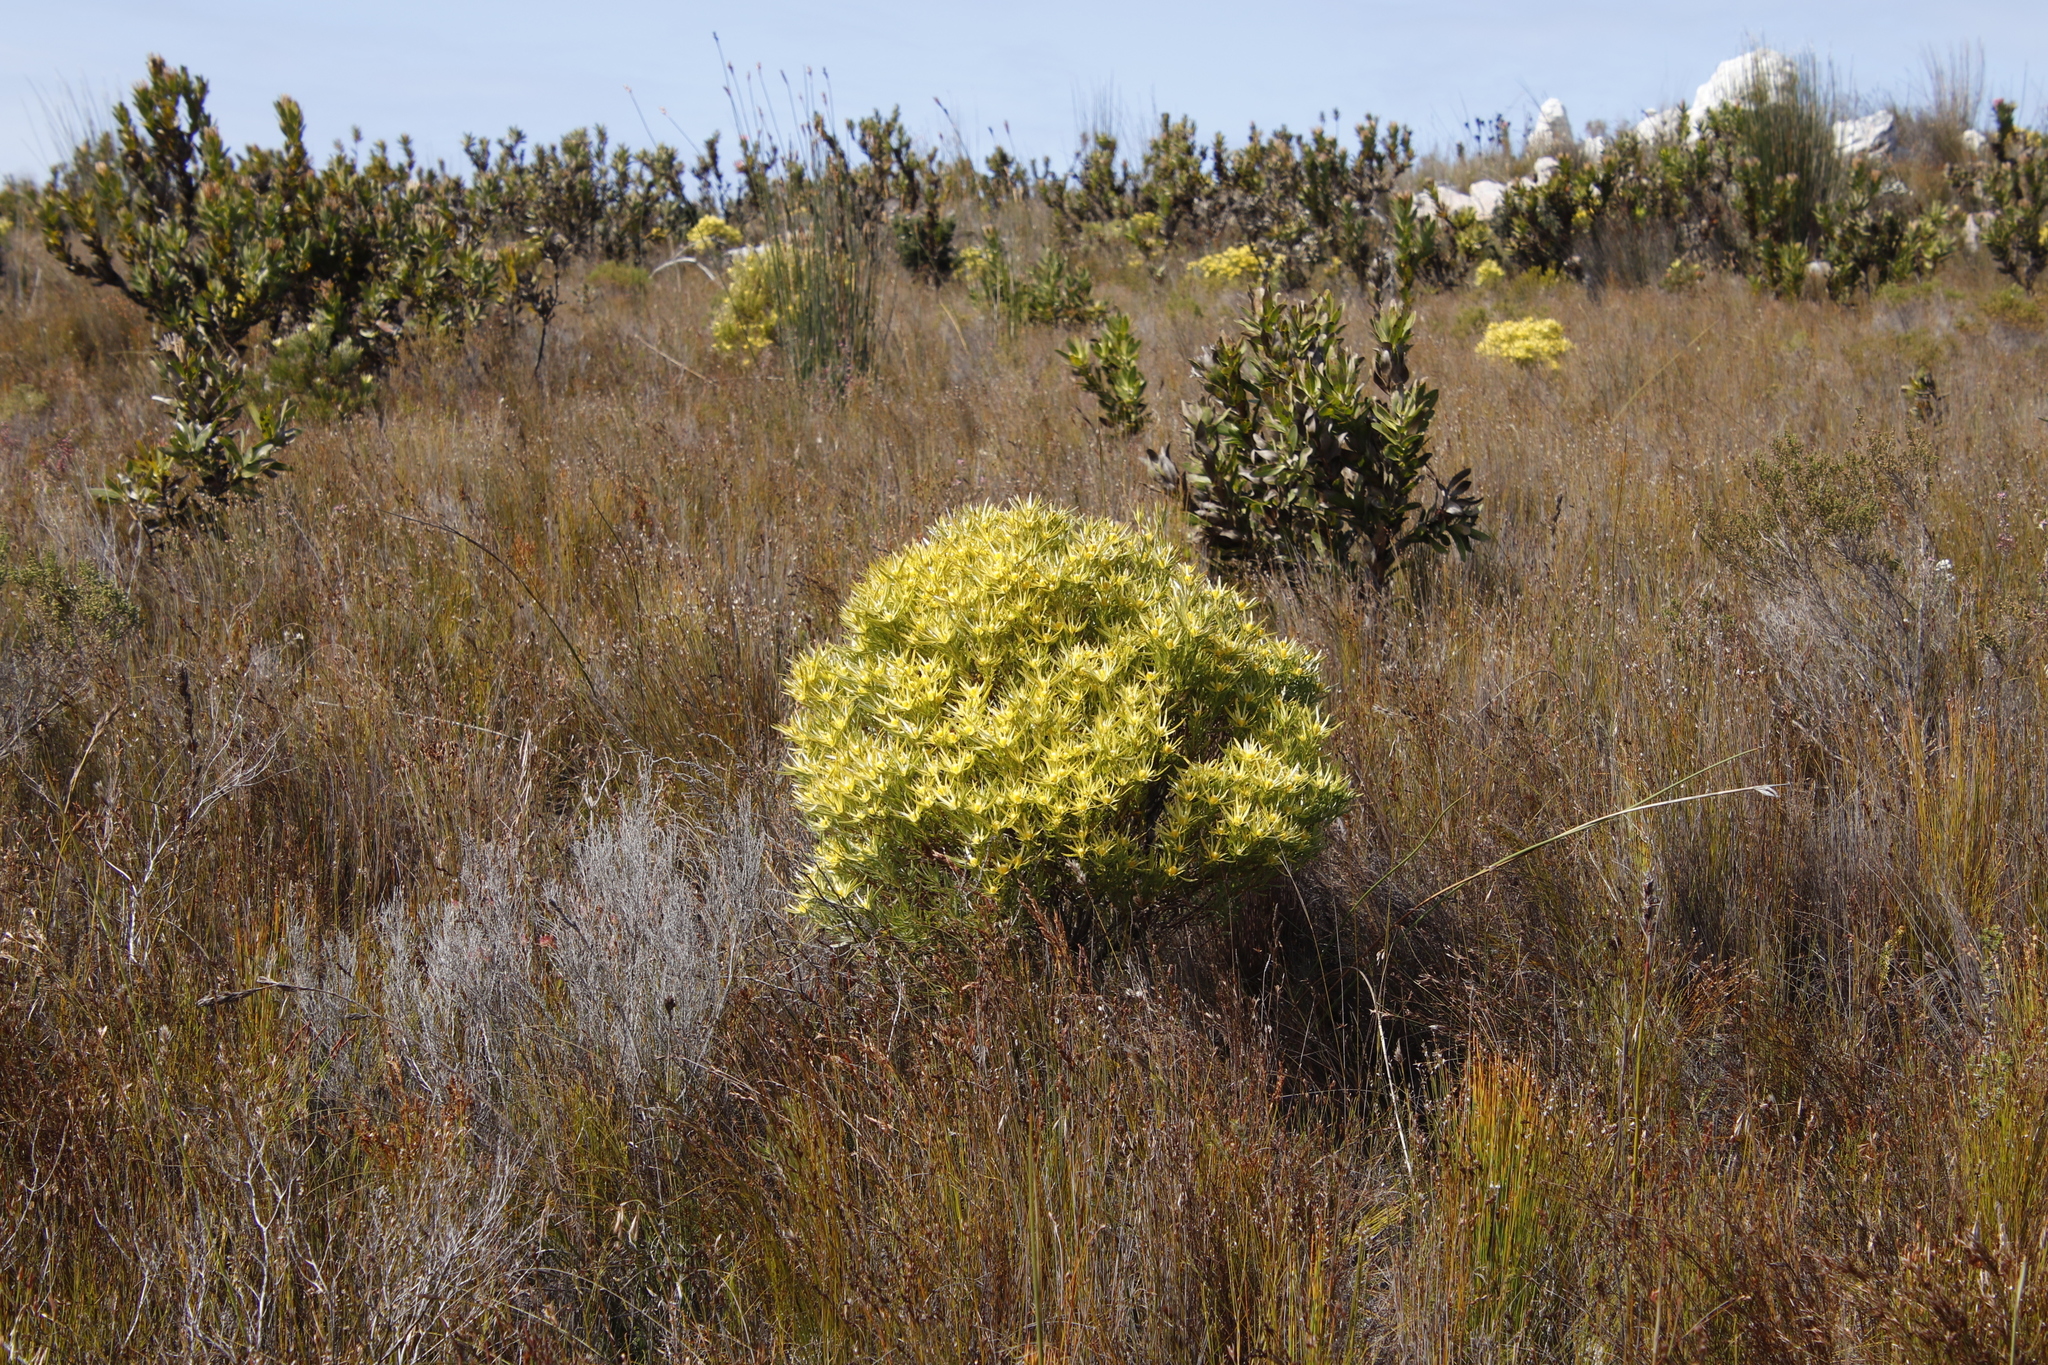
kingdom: Plantae
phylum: Tracheophyta
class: Magnoliopsida
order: Proteales
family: Proteaceae
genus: Leucadendron
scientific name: Leucadendron xanthoconus
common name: Sickle-leaf conebush
